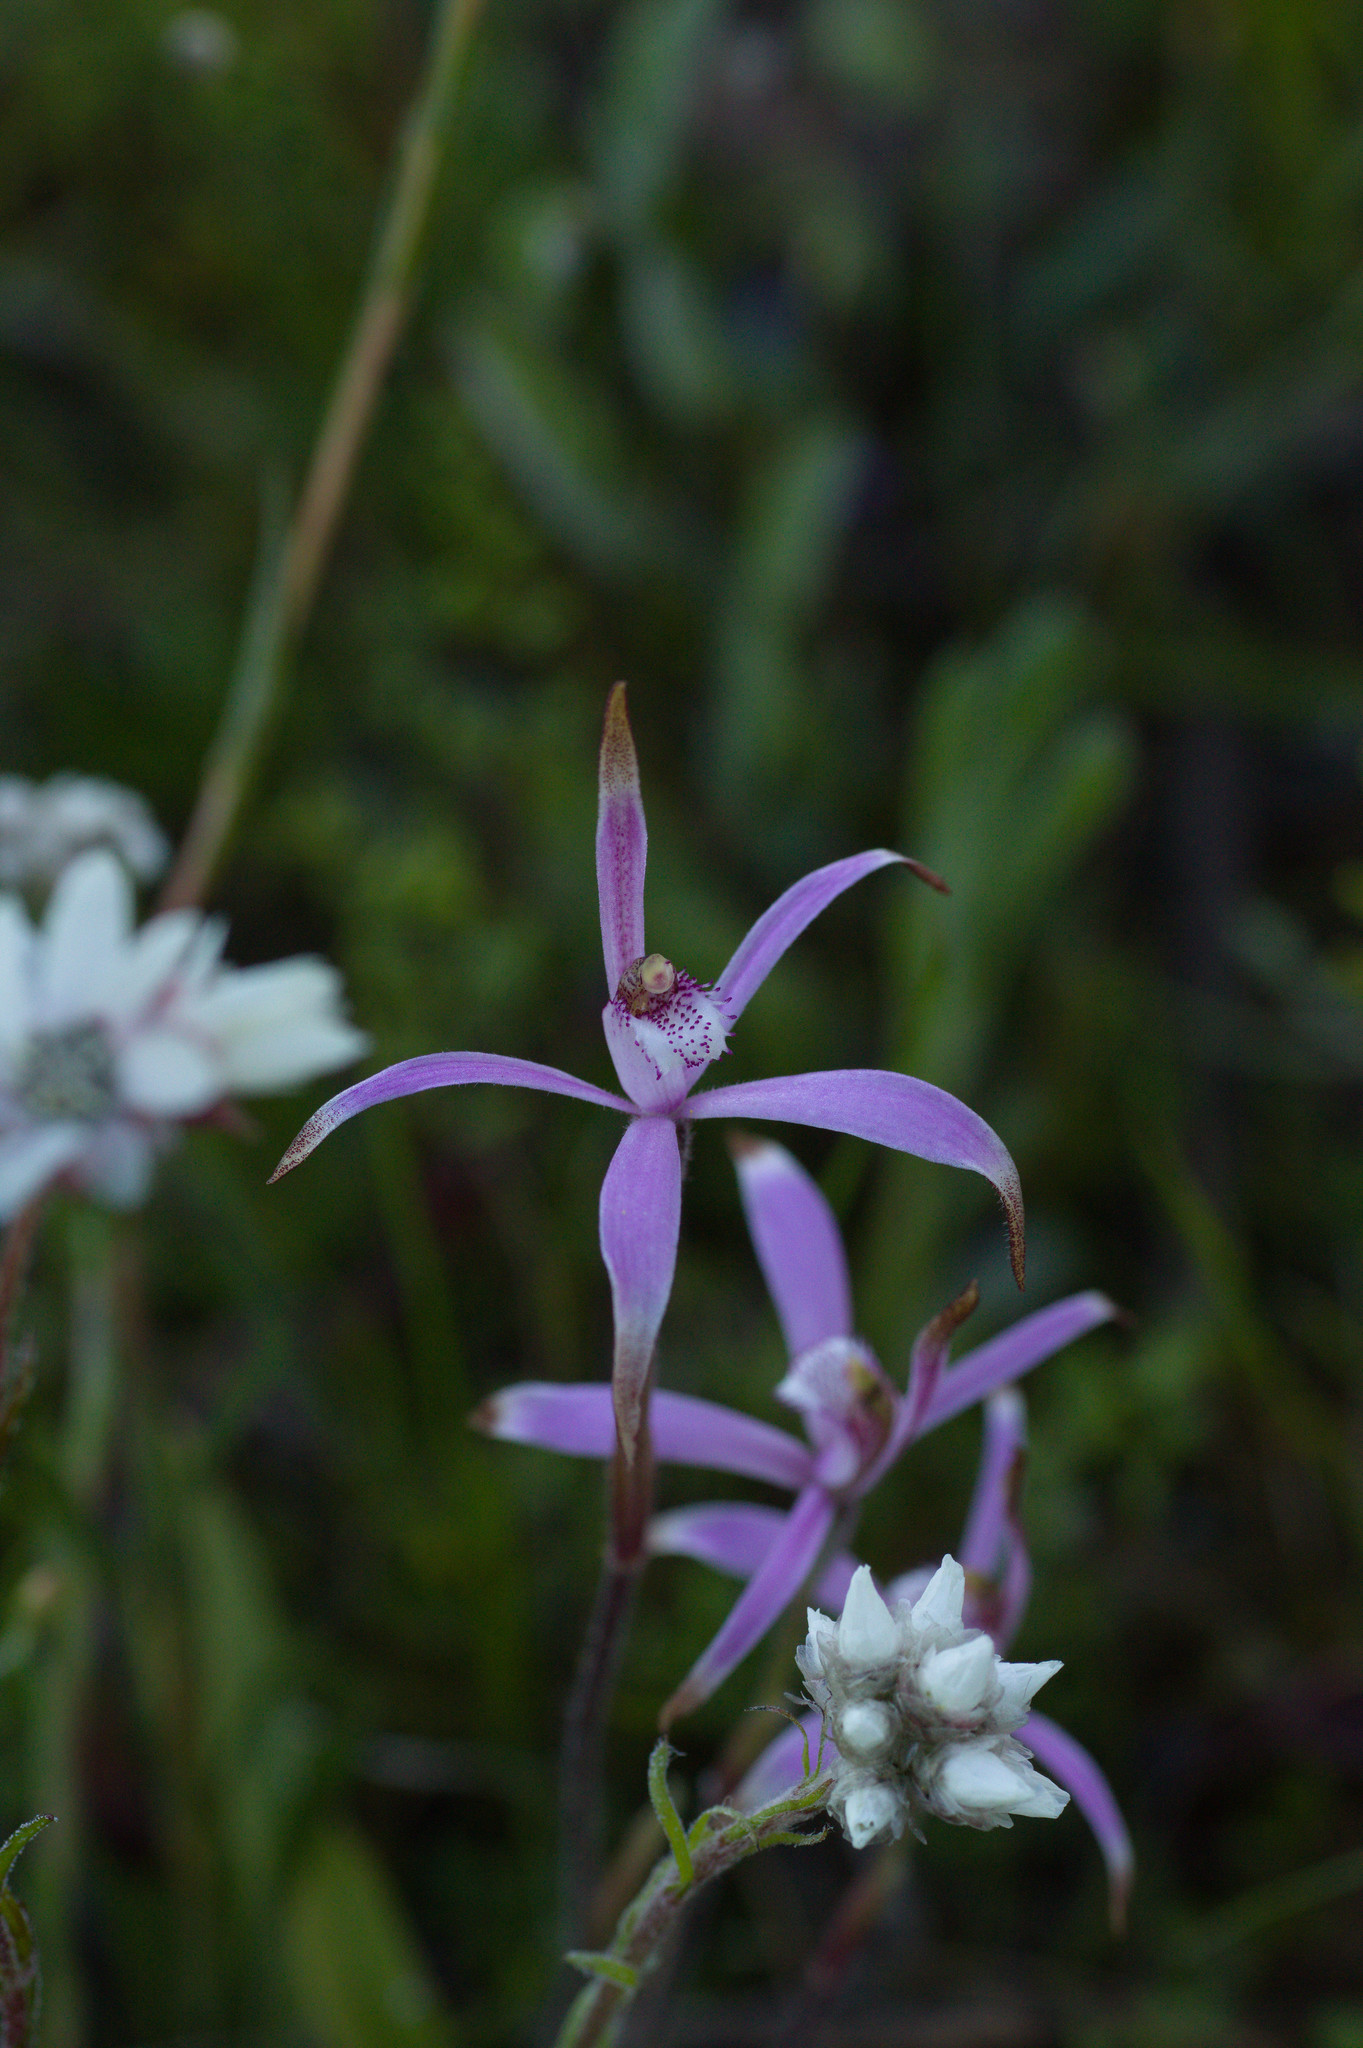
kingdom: Plantae
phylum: Tracheophyta
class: Liliopsida
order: Asparagales
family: Orchidaceae
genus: Caladenia
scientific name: Caladenia hirta
